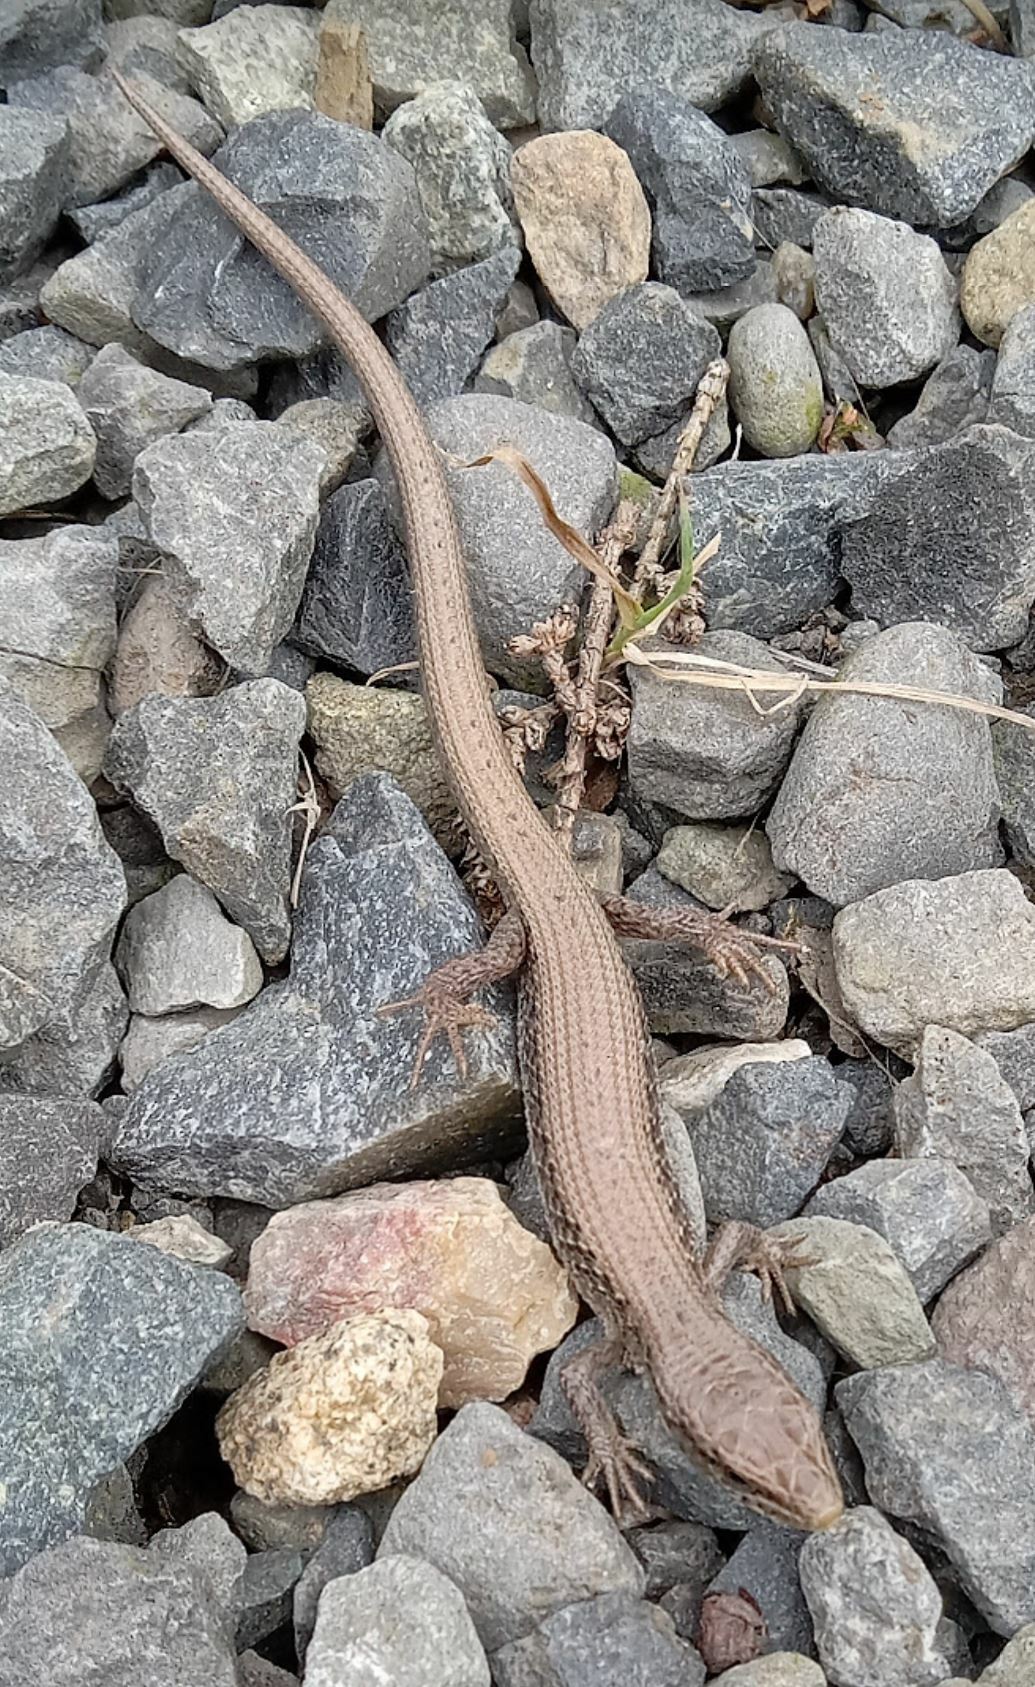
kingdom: Animalia
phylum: Chordata
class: Squamata
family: Anguidae
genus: Elgaria
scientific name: Elgaria coerulea
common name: Northern alligator lizard
